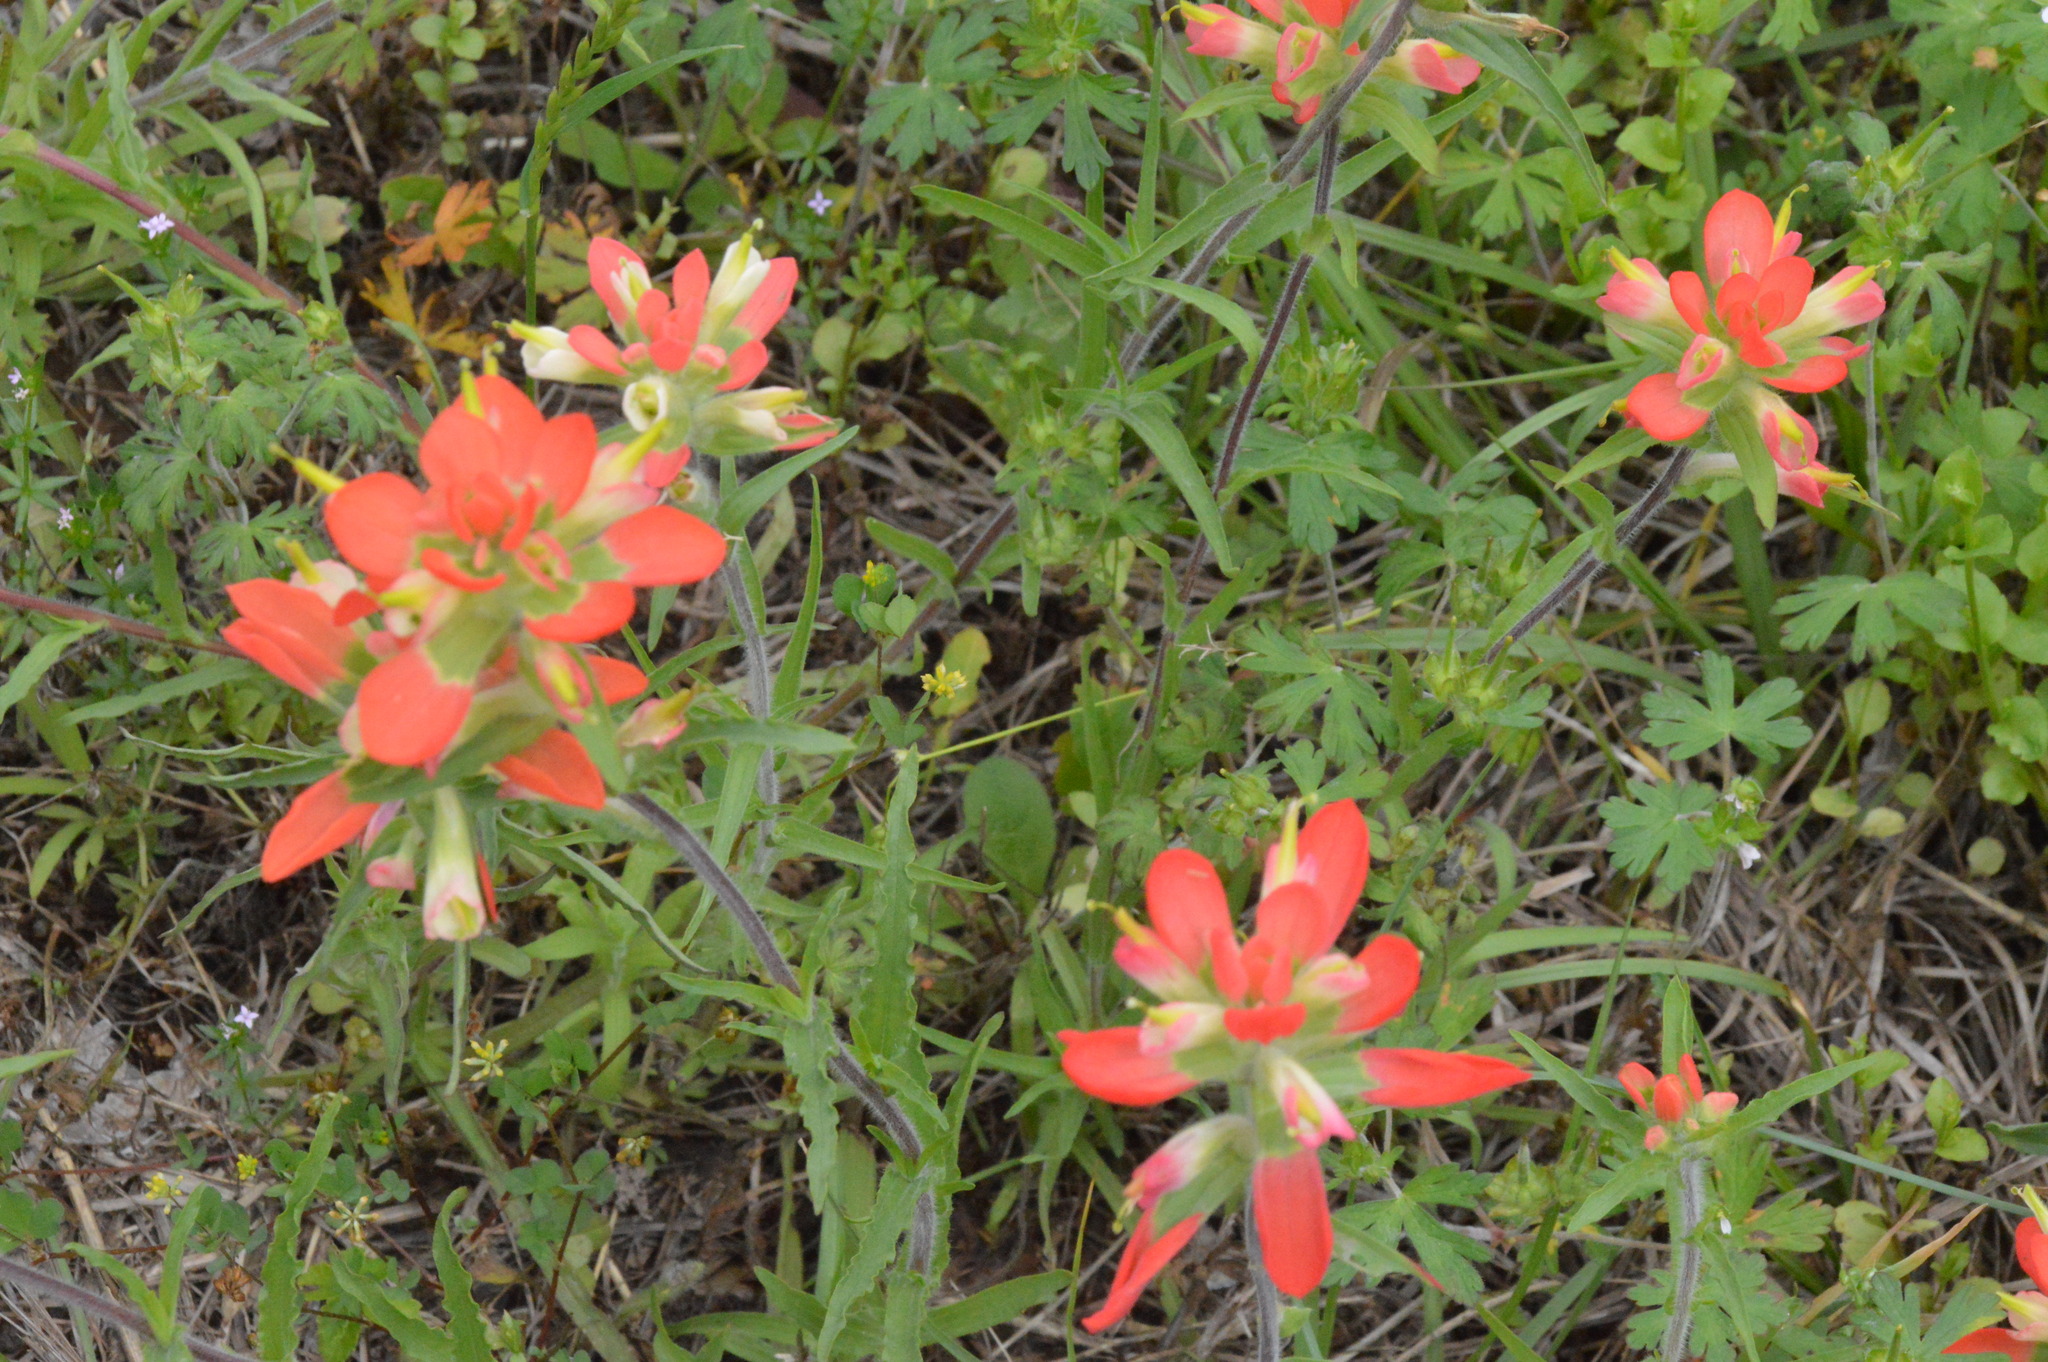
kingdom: Plantae
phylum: Tracheophyta
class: Magnoliopsida
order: Lamiales
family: Orobanchaceae
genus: Castilleja
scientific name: Castilleja indivisa
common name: Texas paintbrush
